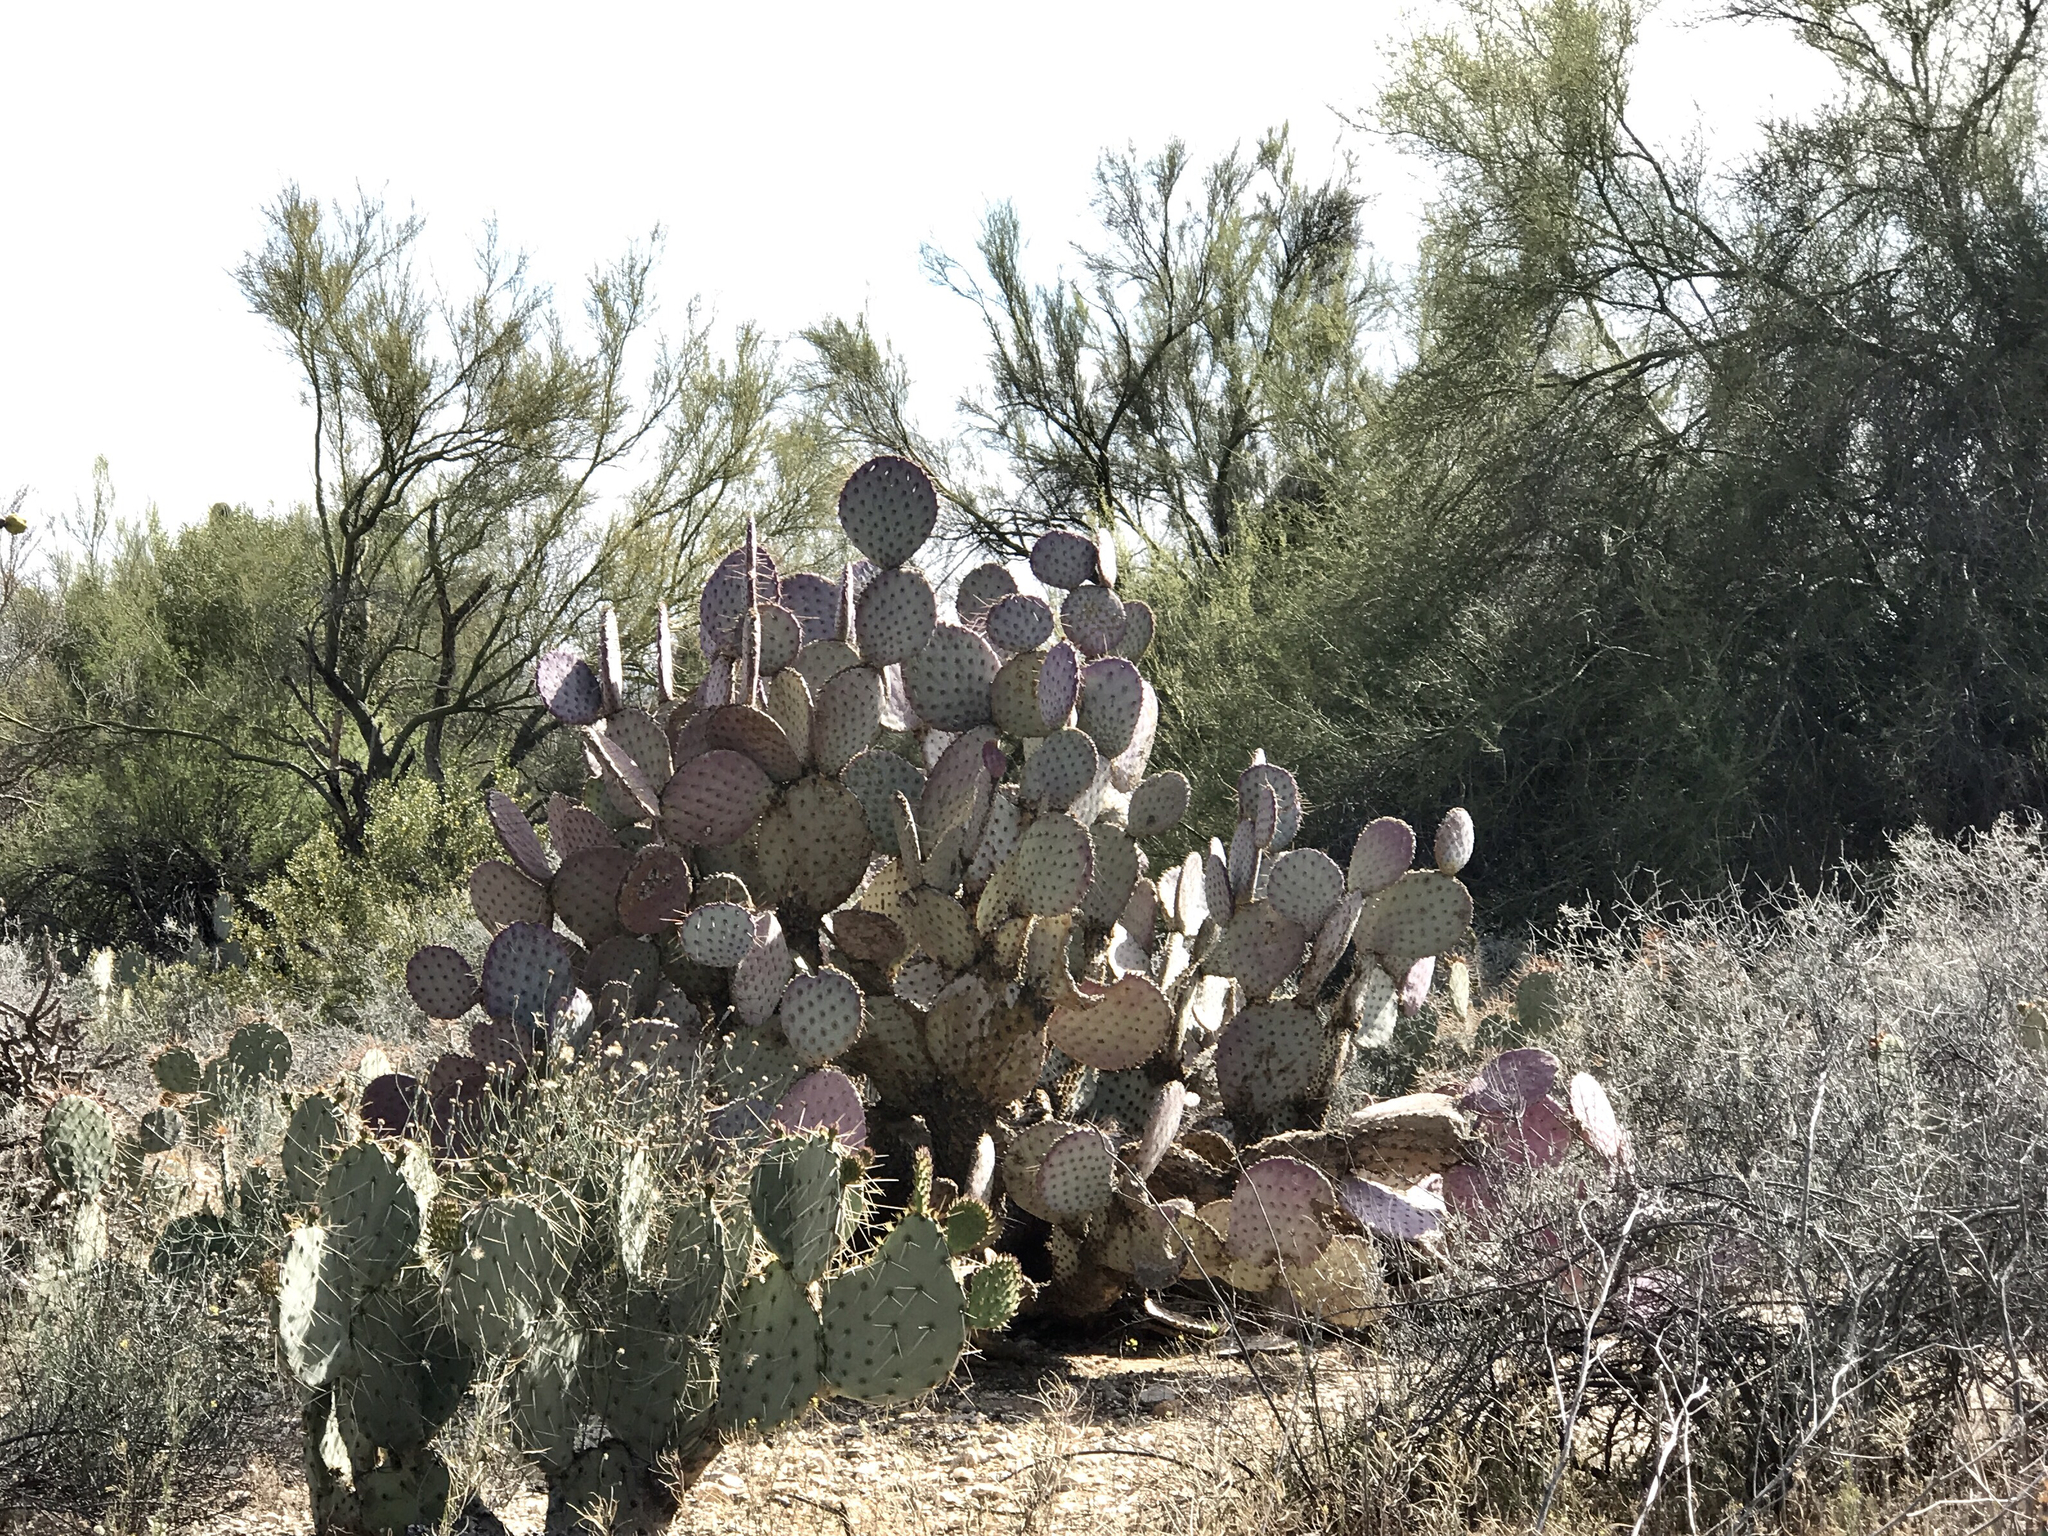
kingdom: Plantae
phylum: Tracheophyta
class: Magnoliopsida
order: Caryophyllales
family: Cactaceae
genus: Opuntia
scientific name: Opuntia gosseliniana
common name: Violet prickly-pear
